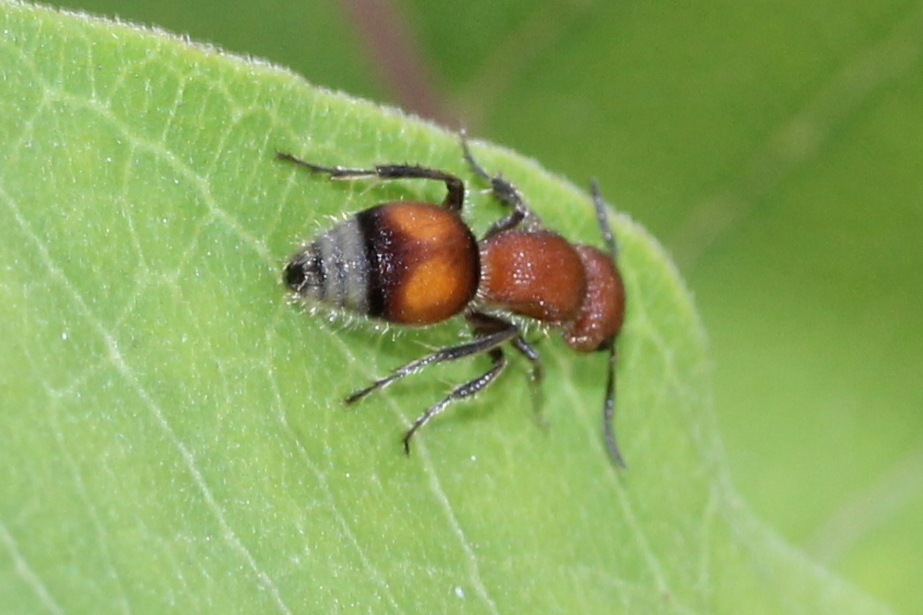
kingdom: Animalia
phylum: Arthropoda
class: Insecta
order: Hymenoptera
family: Mutillidae
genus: Pseudomethoca
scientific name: Pseudomethoca
